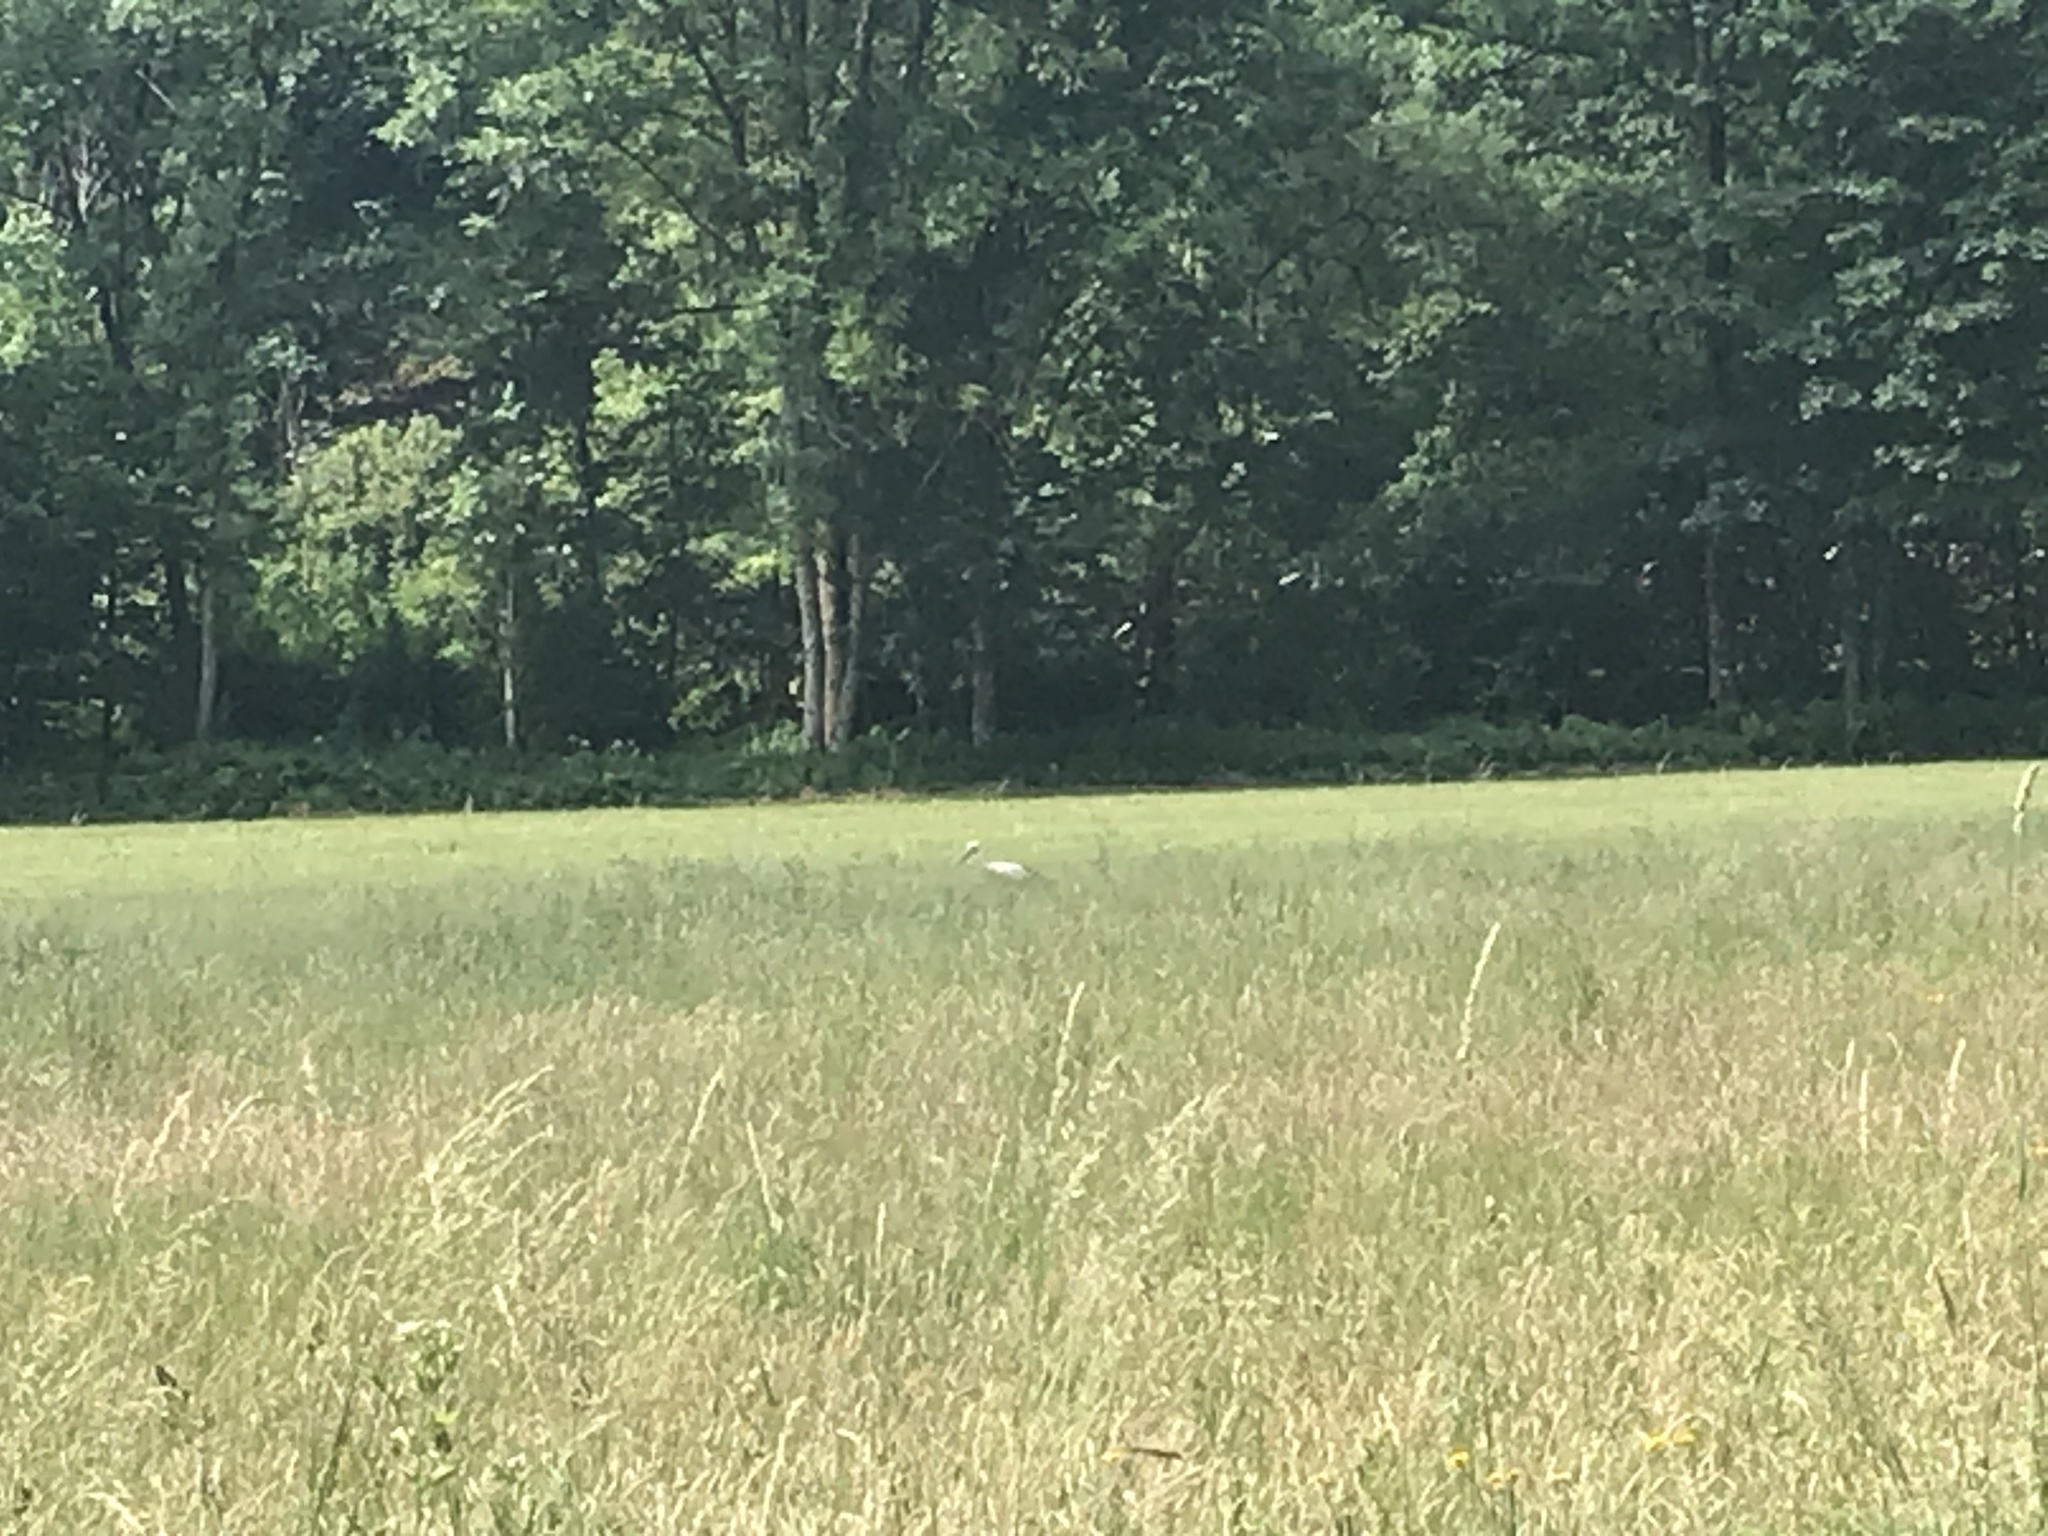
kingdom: Animalia
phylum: Chordata
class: Aves
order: Ciconiiformes
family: Ciconiidae
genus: Ciconia
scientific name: Ciconia ciconia
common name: White stork
